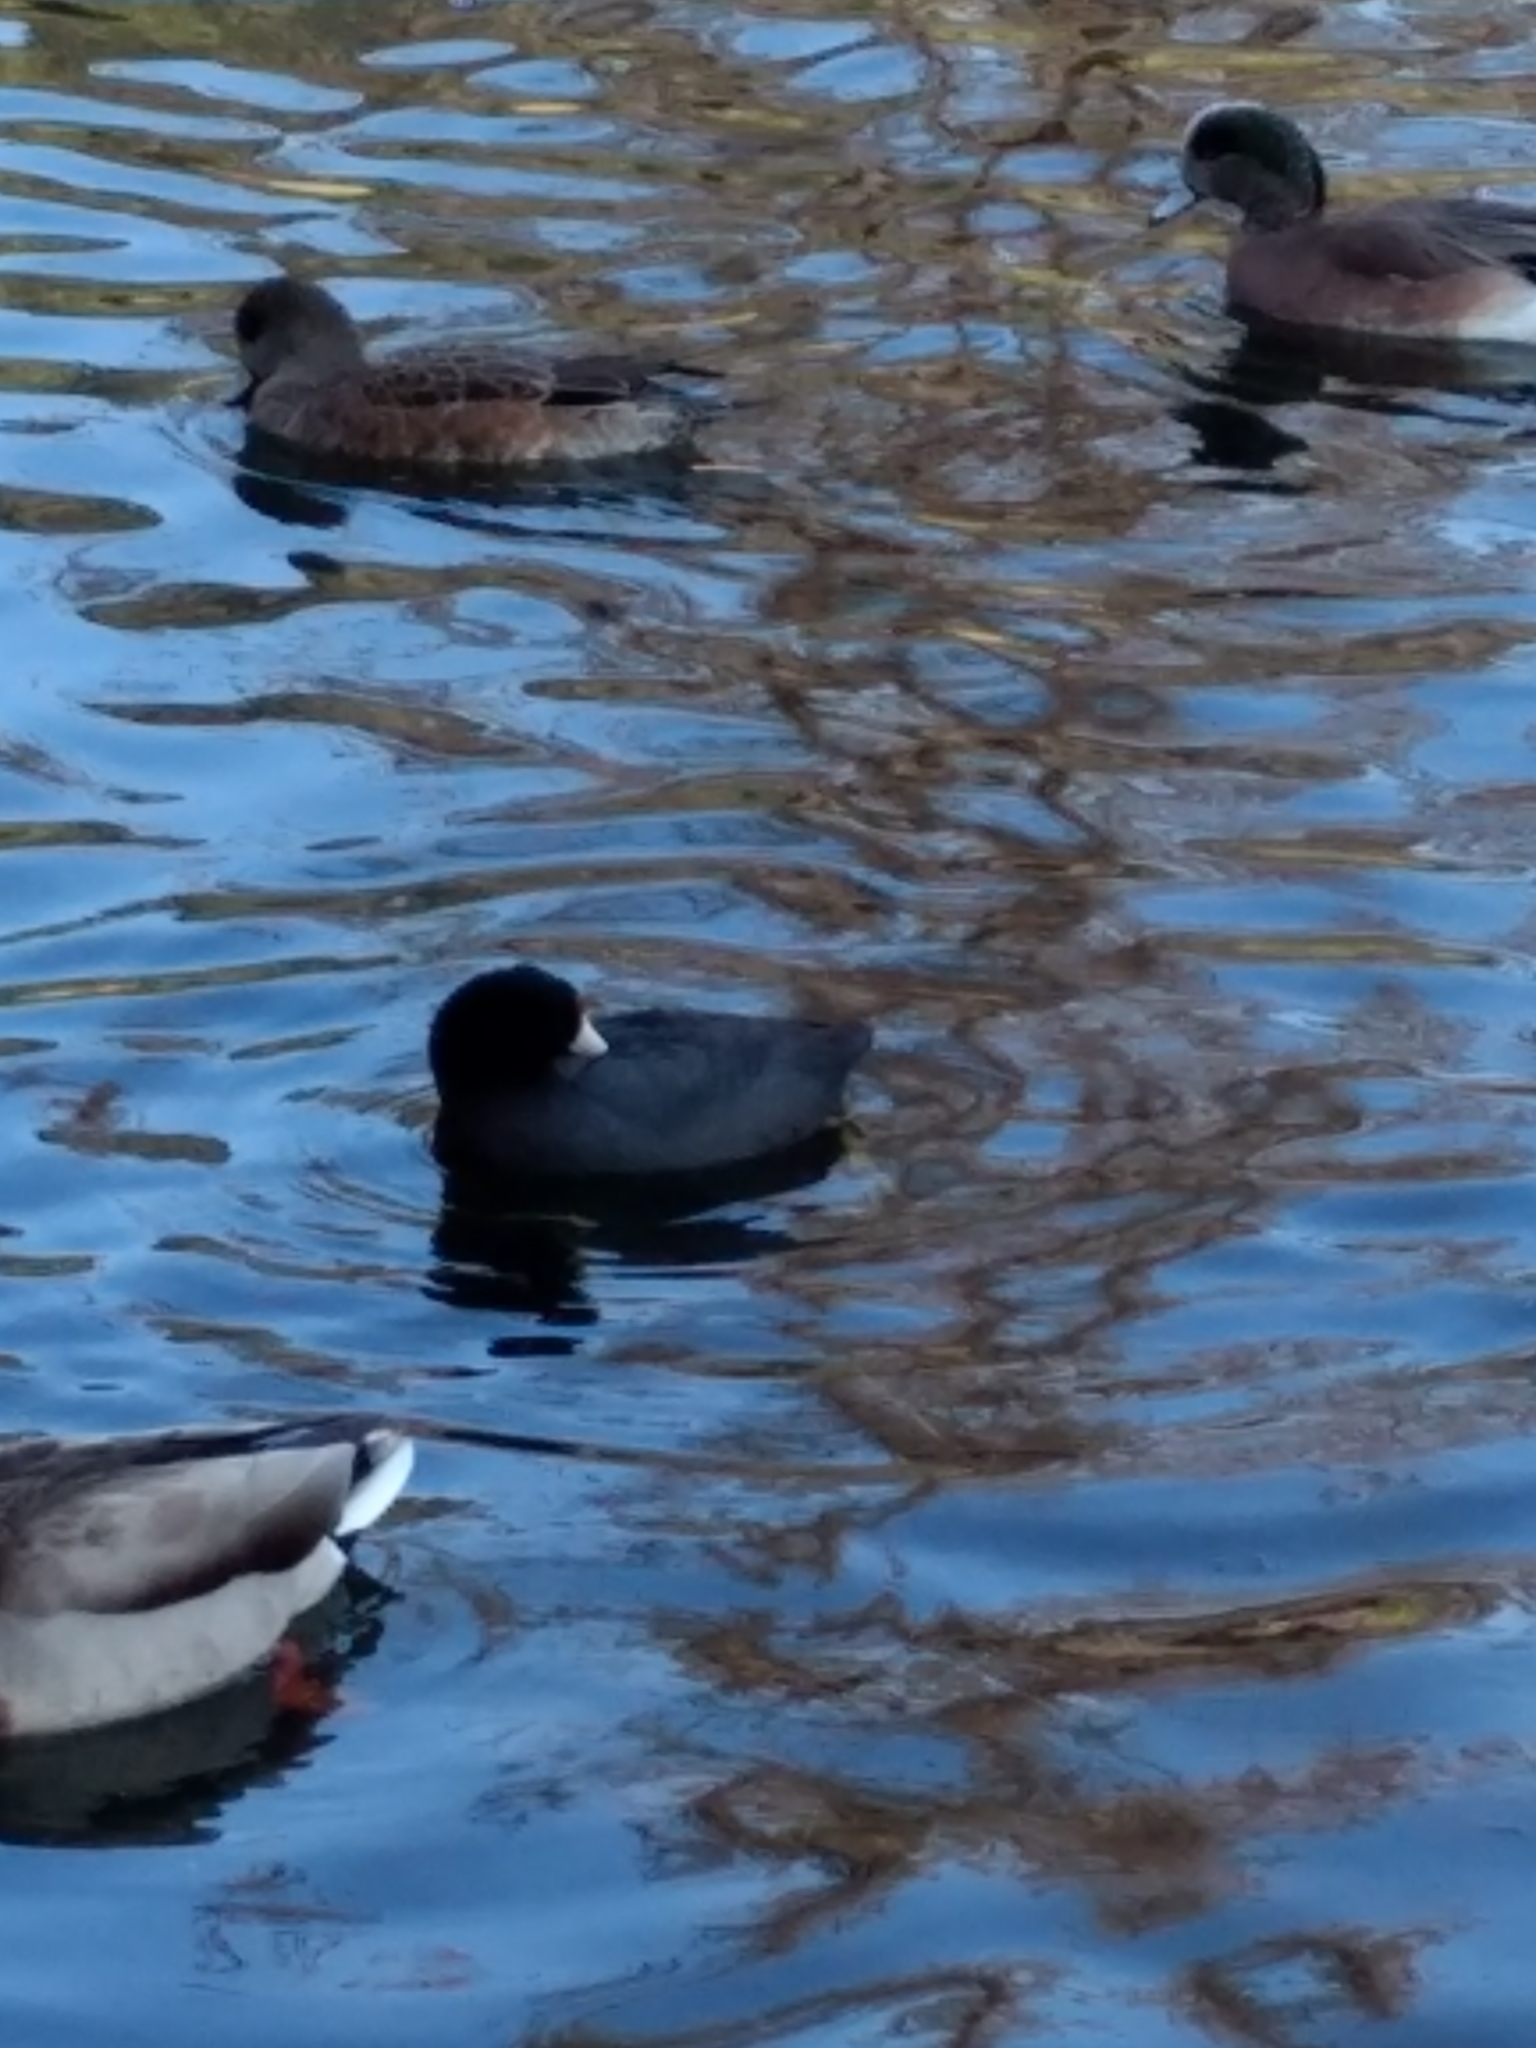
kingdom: Animalia
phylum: Chordata
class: Aves
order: Gruiformes
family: Rallidae
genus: Fulica
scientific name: Fulica americana
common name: American coot
